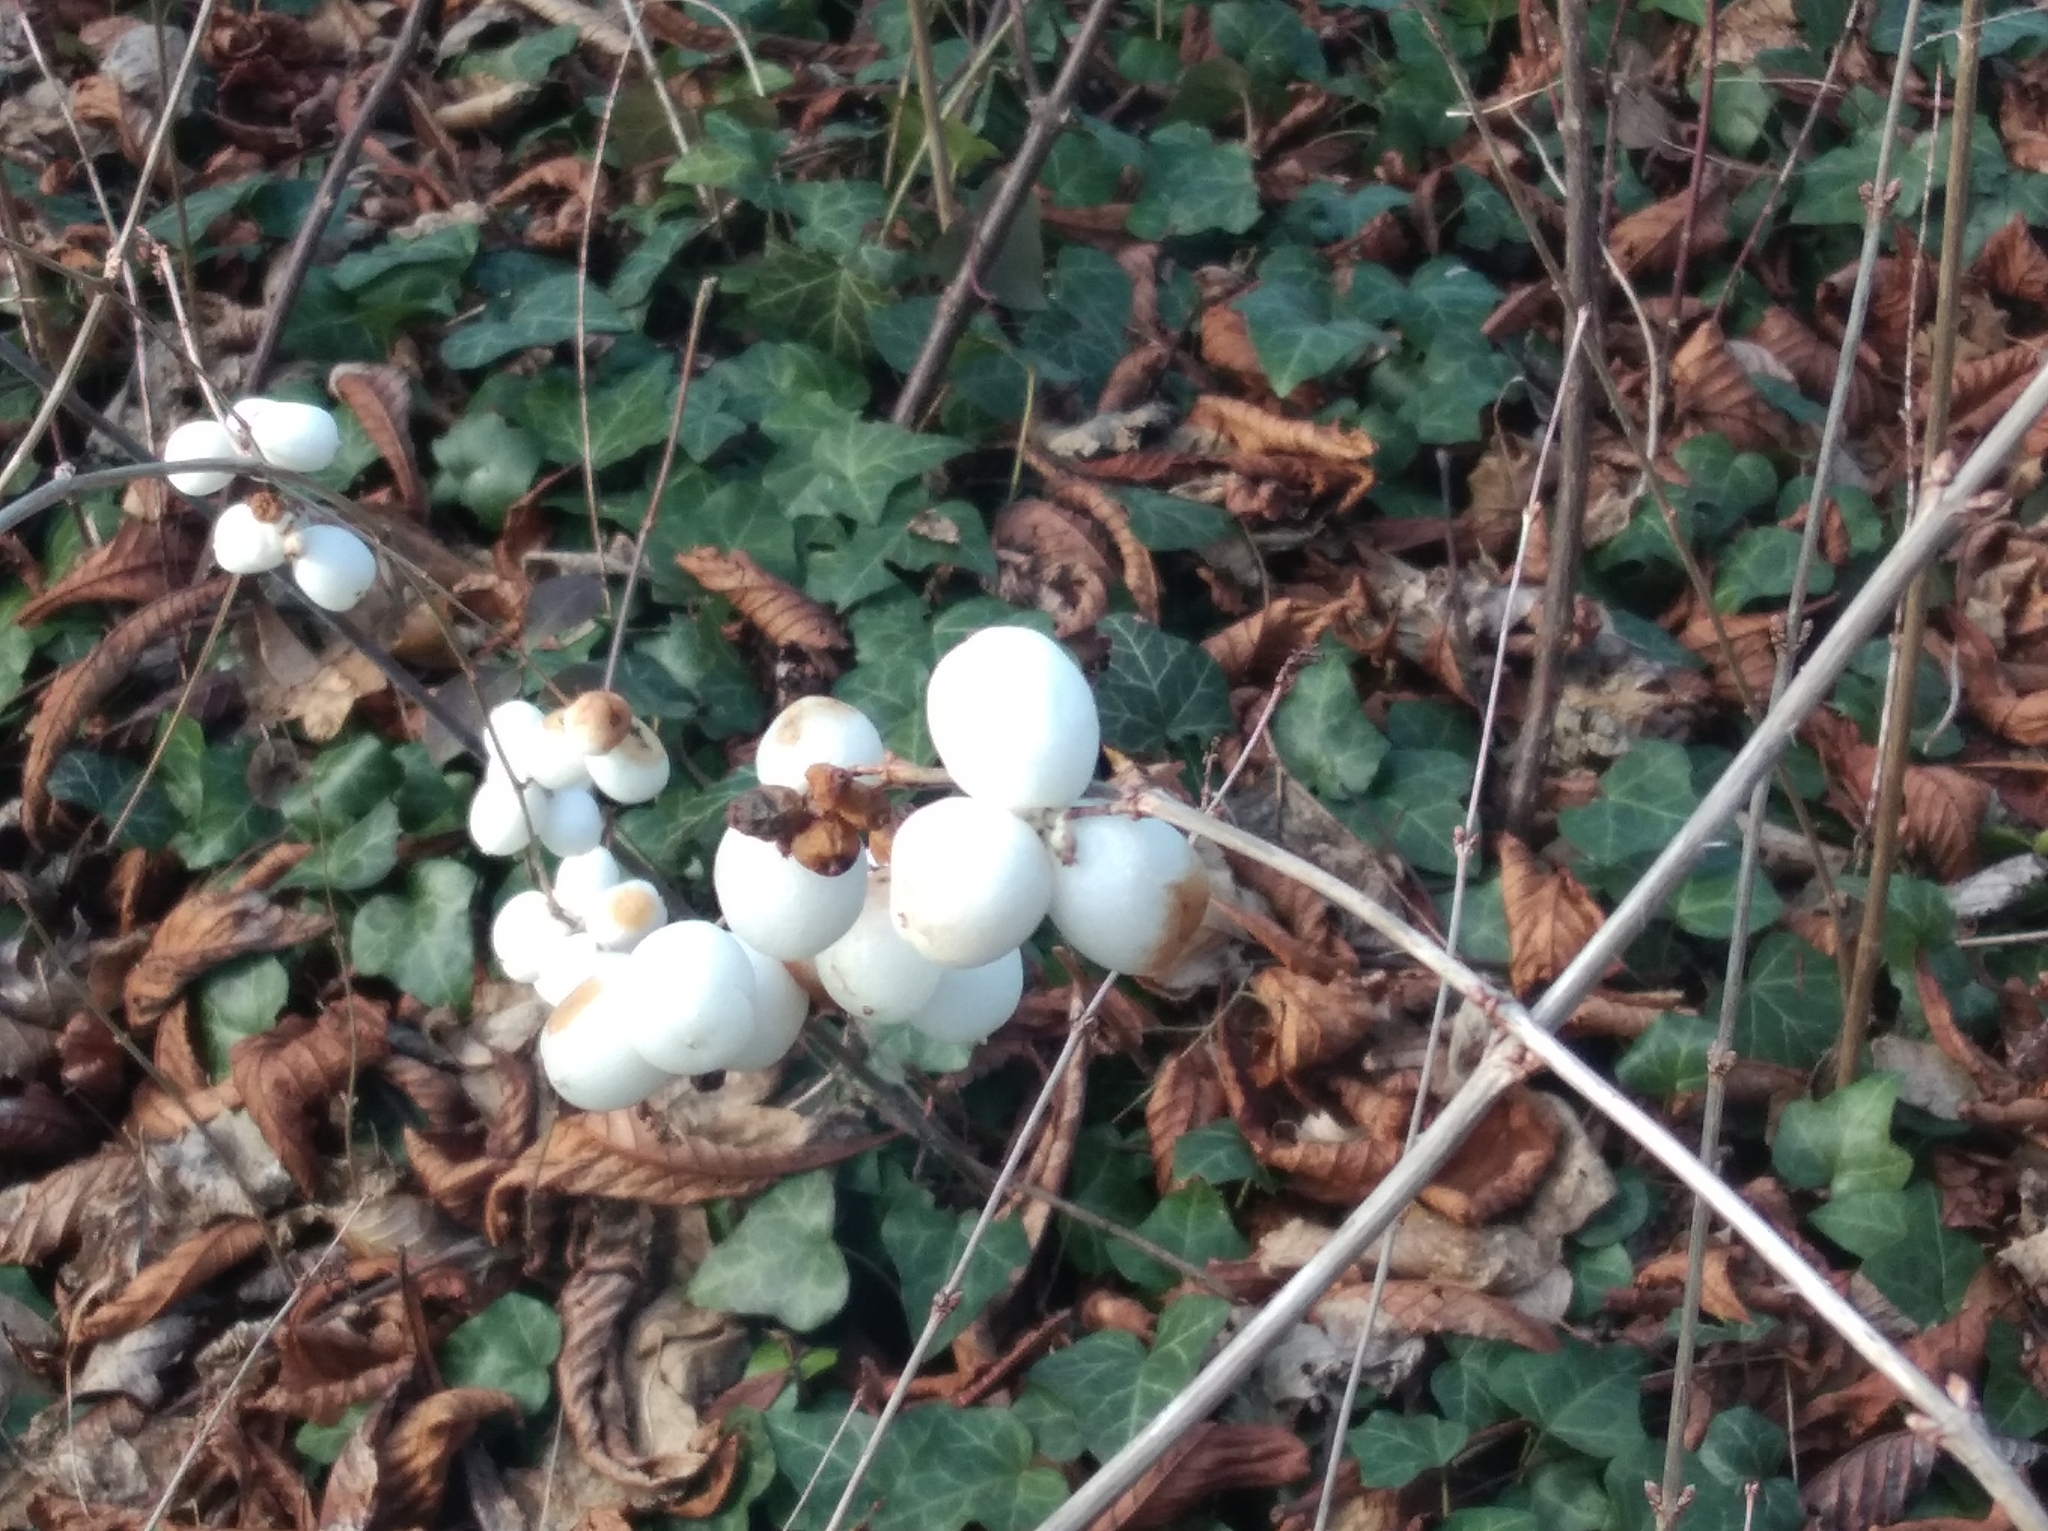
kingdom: Plantae
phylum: Tracheophyta
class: Magnoliopsida
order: Dipsacales
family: Caprifoliaceae
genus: Symphoricarpos
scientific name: Symphoricarpos albus
